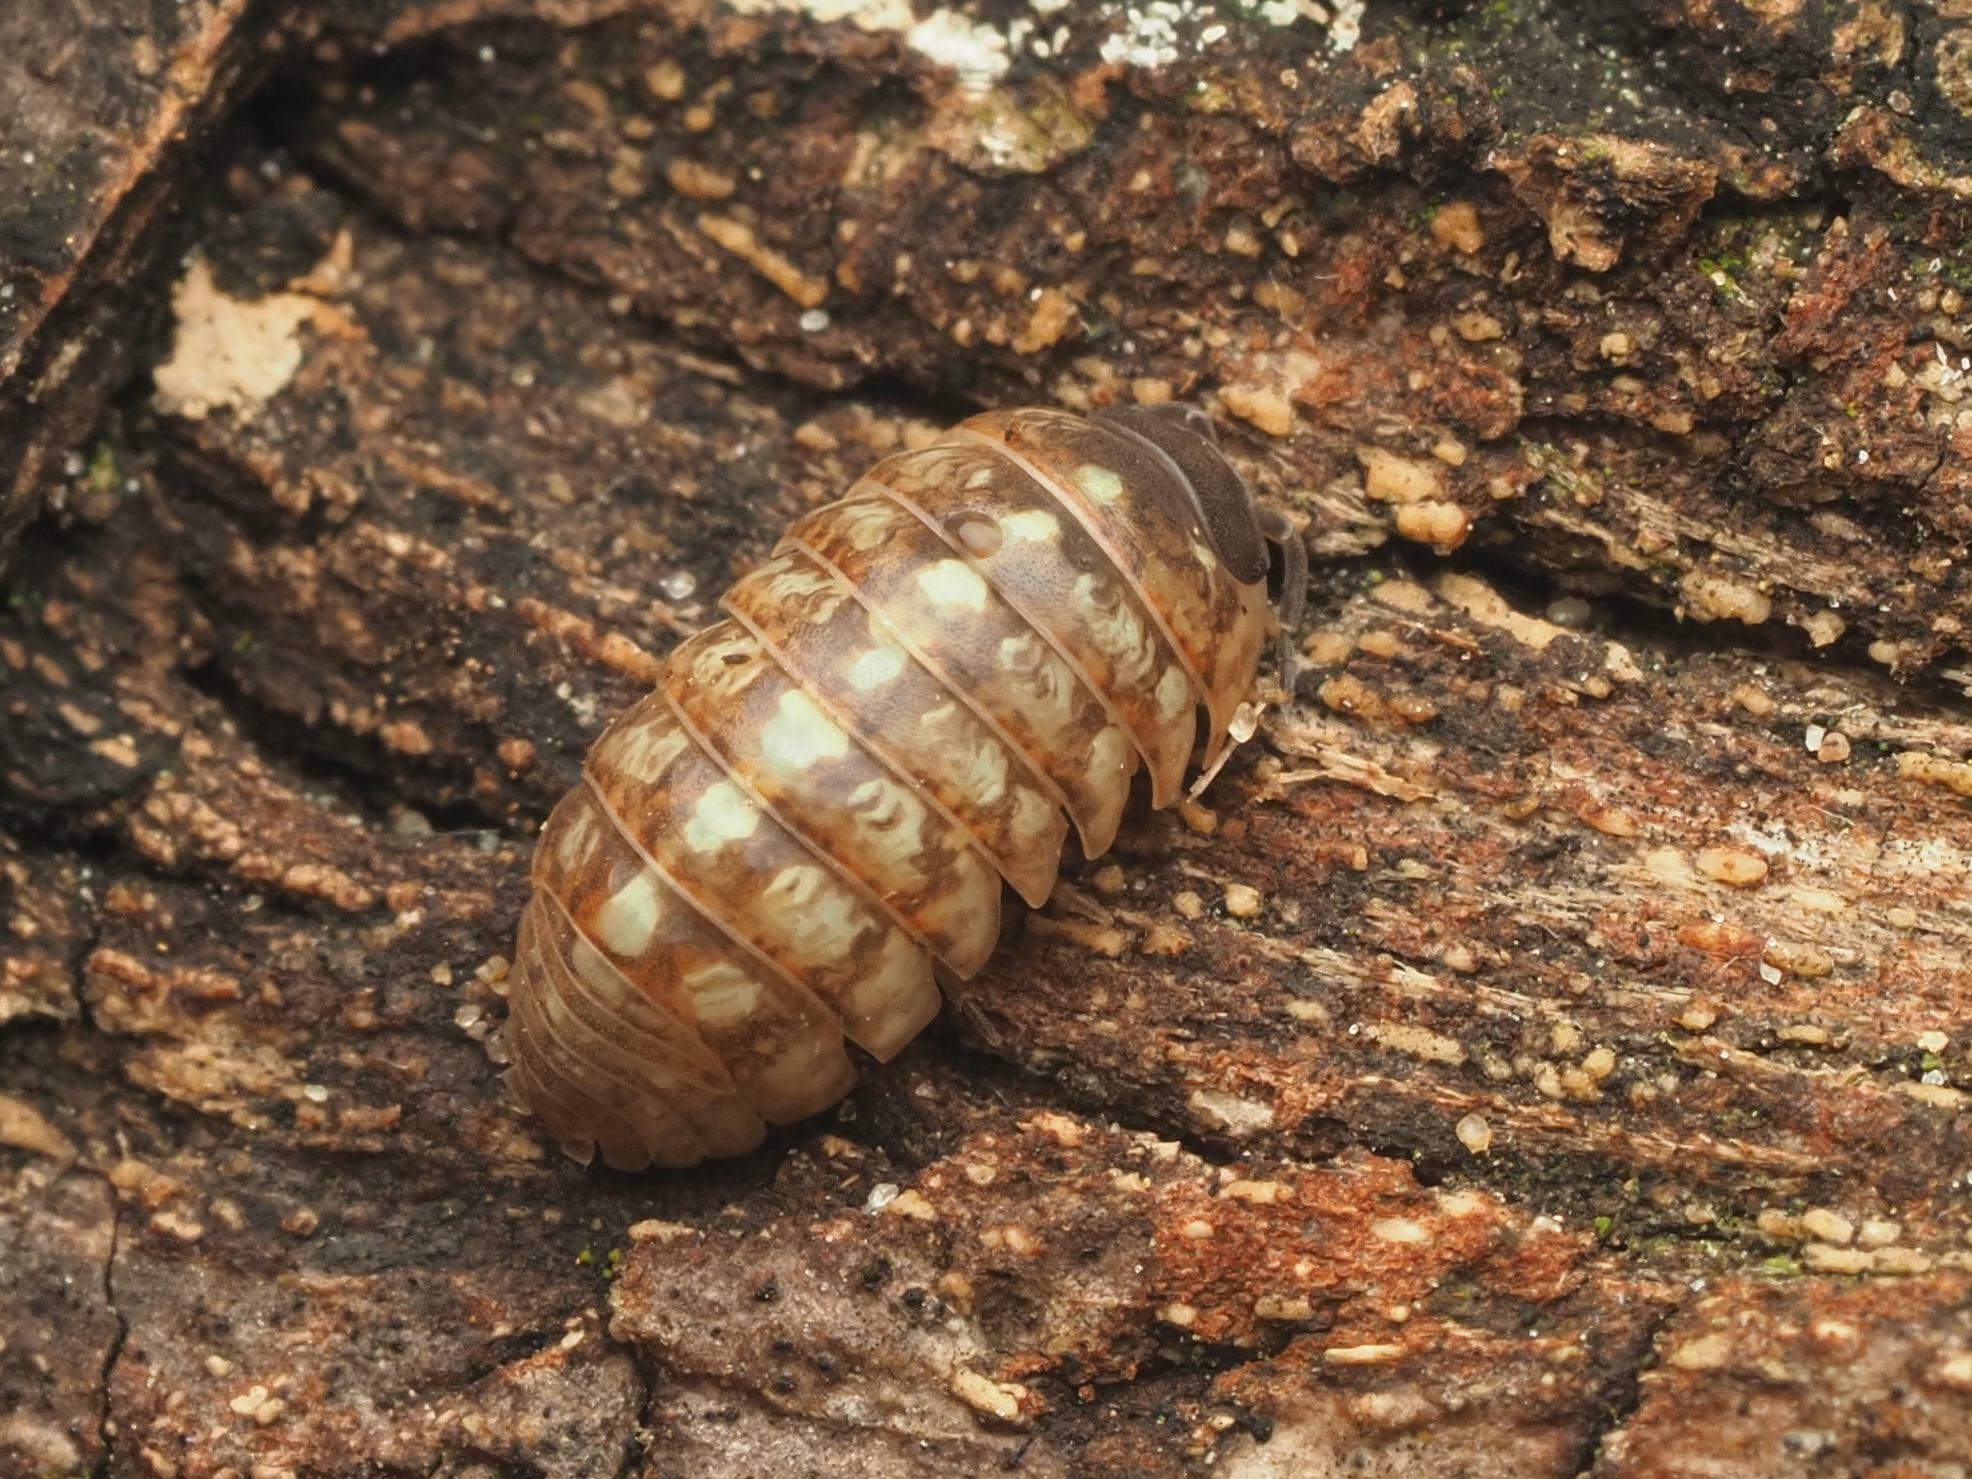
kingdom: Animalia
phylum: Arthropoda
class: Malacostraca
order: Isopoda
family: Armadillidiidae
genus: Armadillidium
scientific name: Armadillidium vulgare
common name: Common pill woodlouse
